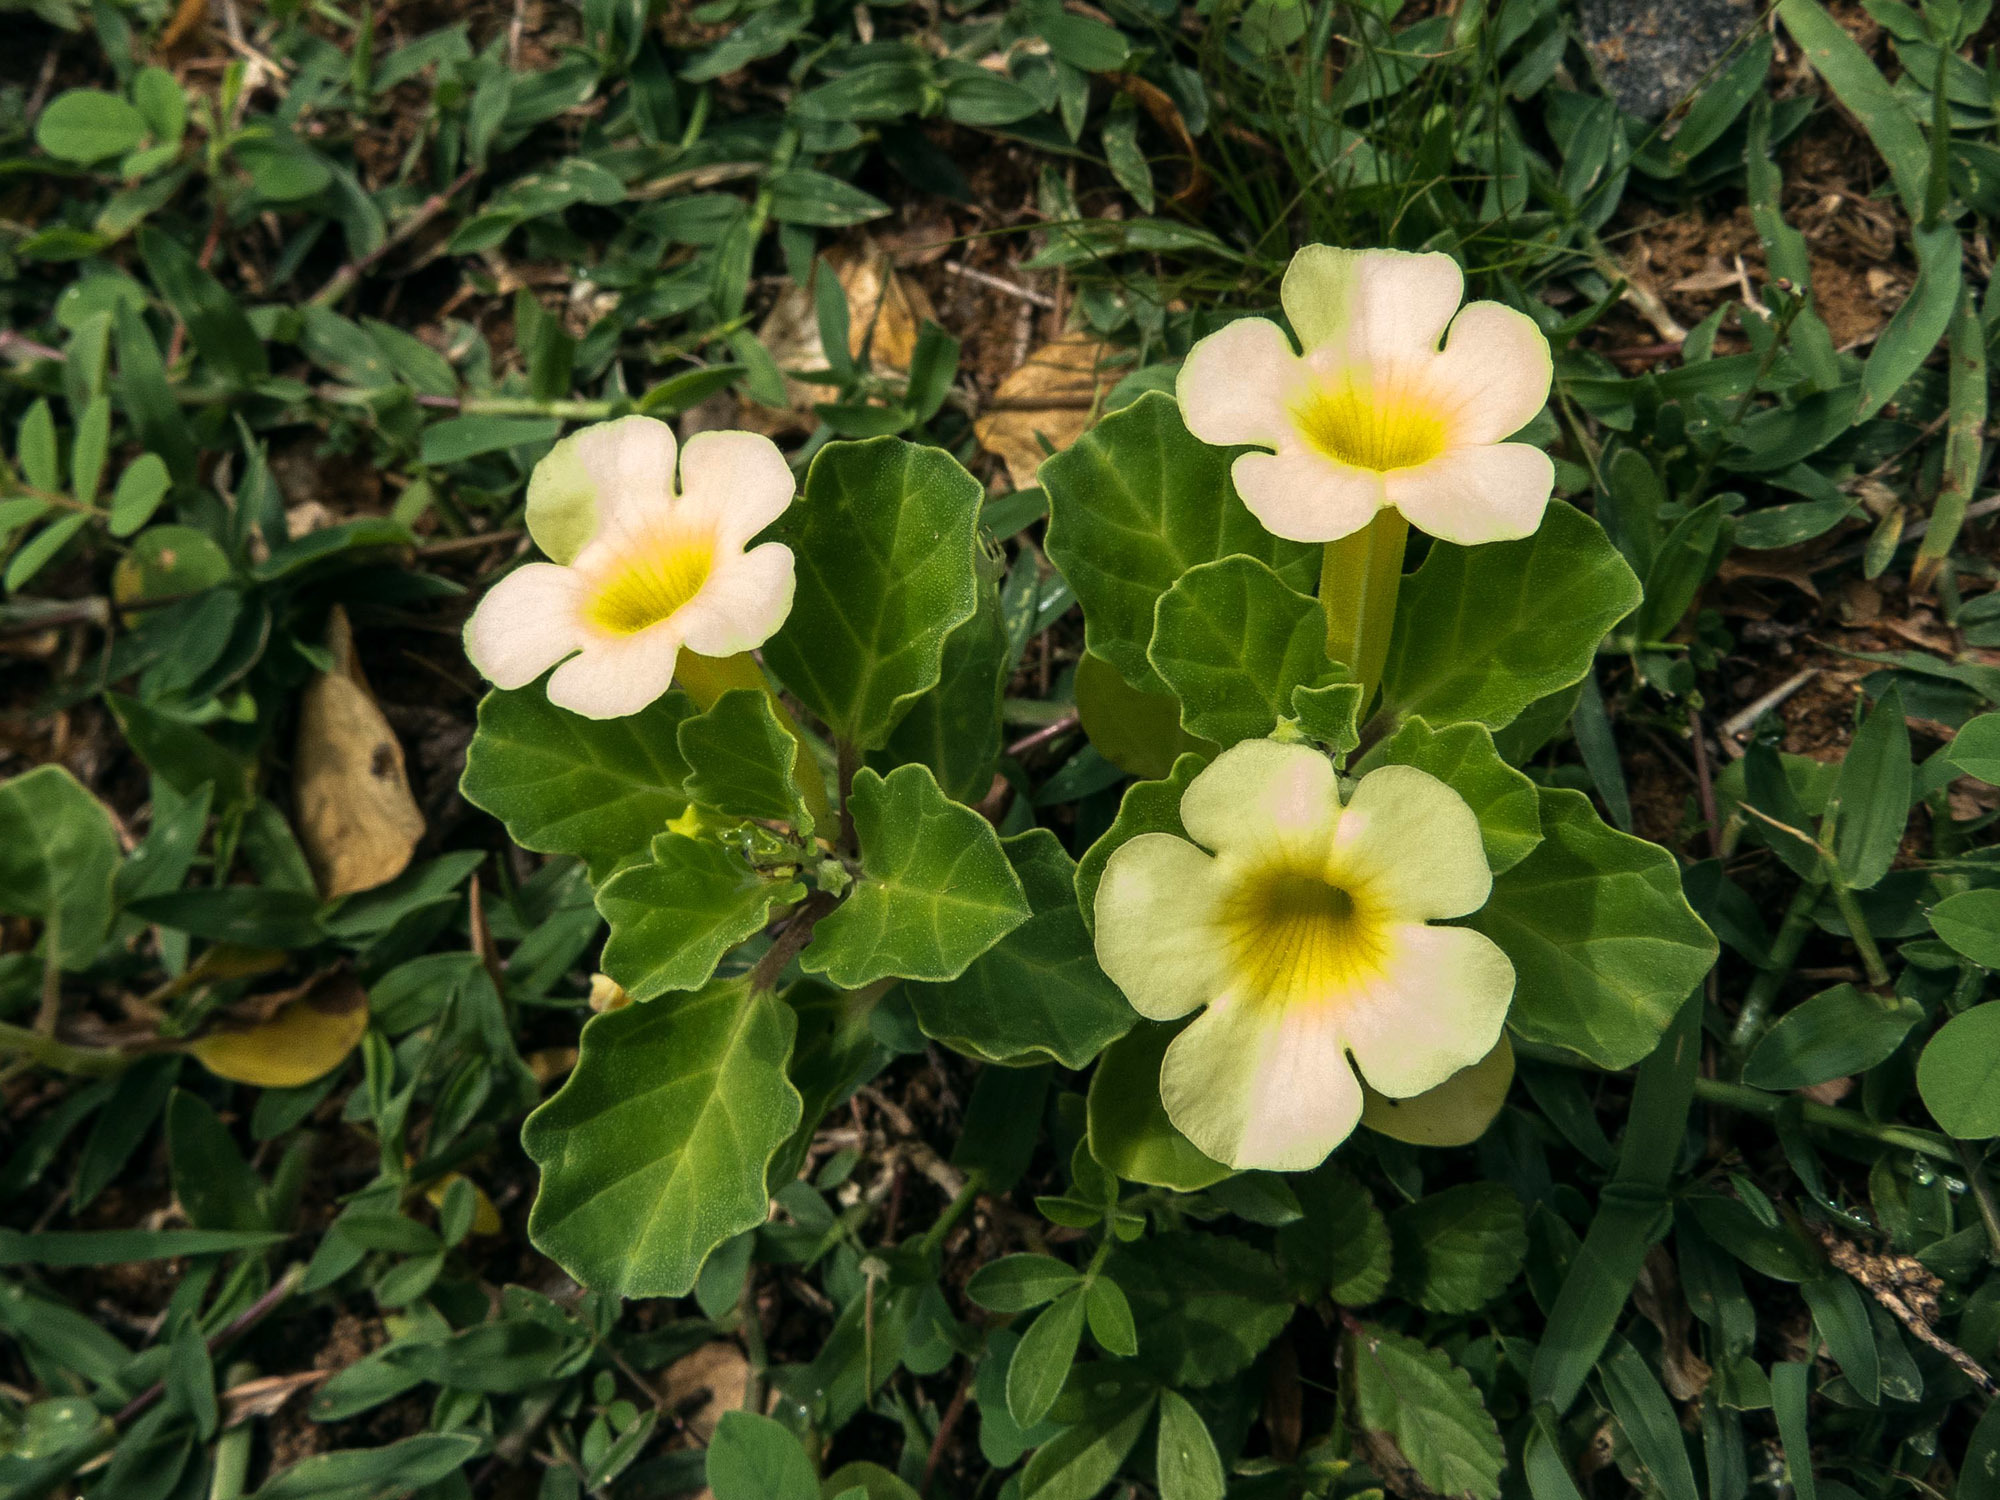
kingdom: Plantae
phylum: Tracheophyta
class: Magnoliopsida
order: Lamiales
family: Pedaliaceae
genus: Pedalium
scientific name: Pedalium murex
